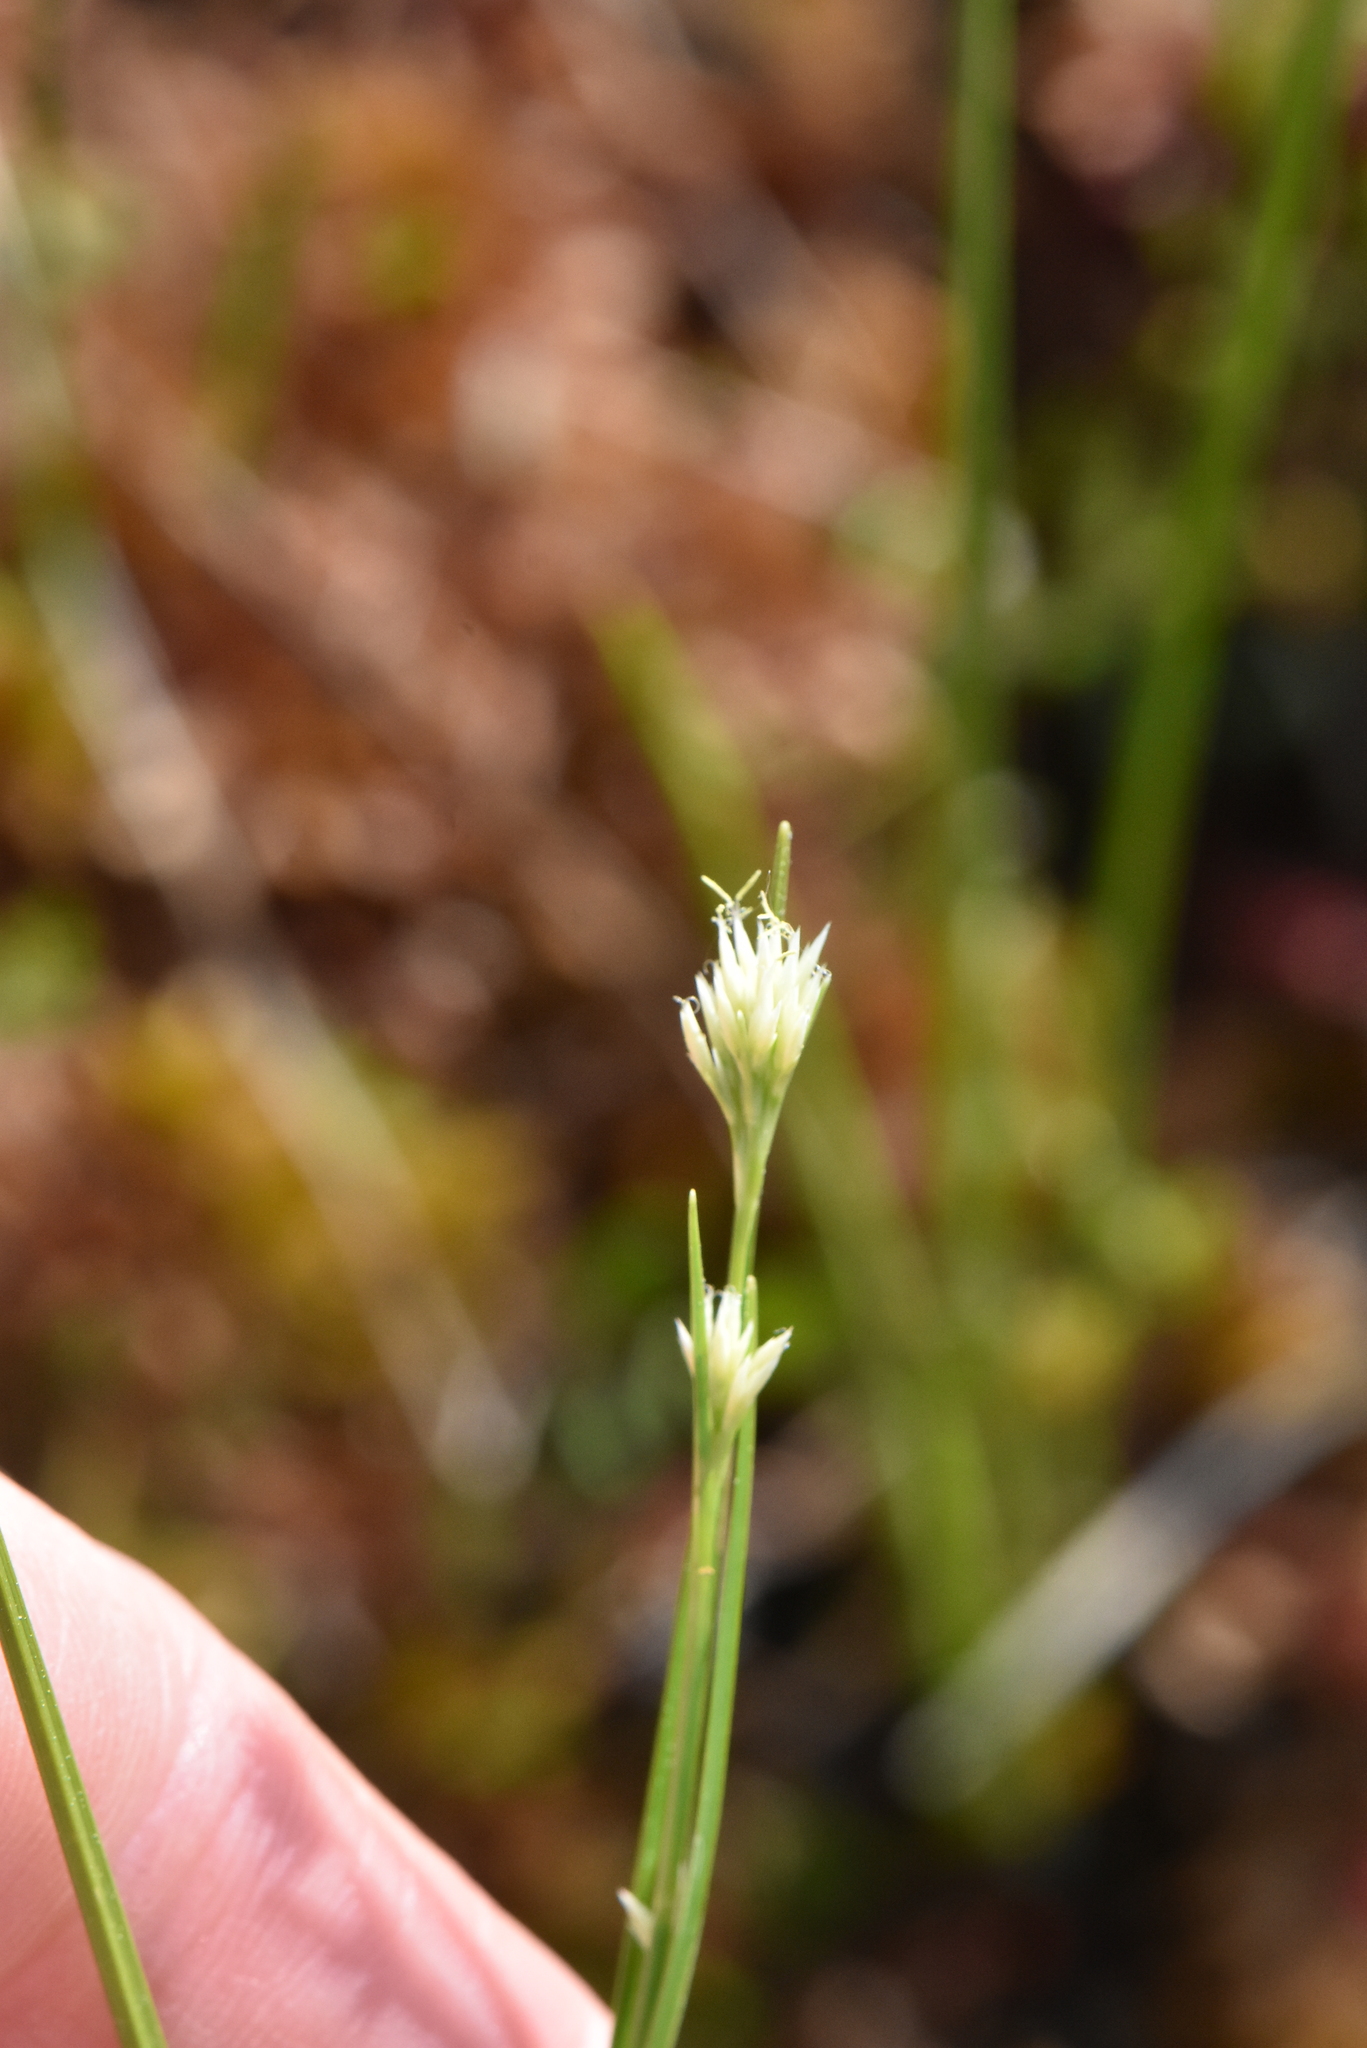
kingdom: Plantae
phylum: Tracheophyta
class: Liliopsida
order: Poales
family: Cyperaceae
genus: Rhynchospora
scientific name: Rhynchospora alba
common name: White beak-sedge
